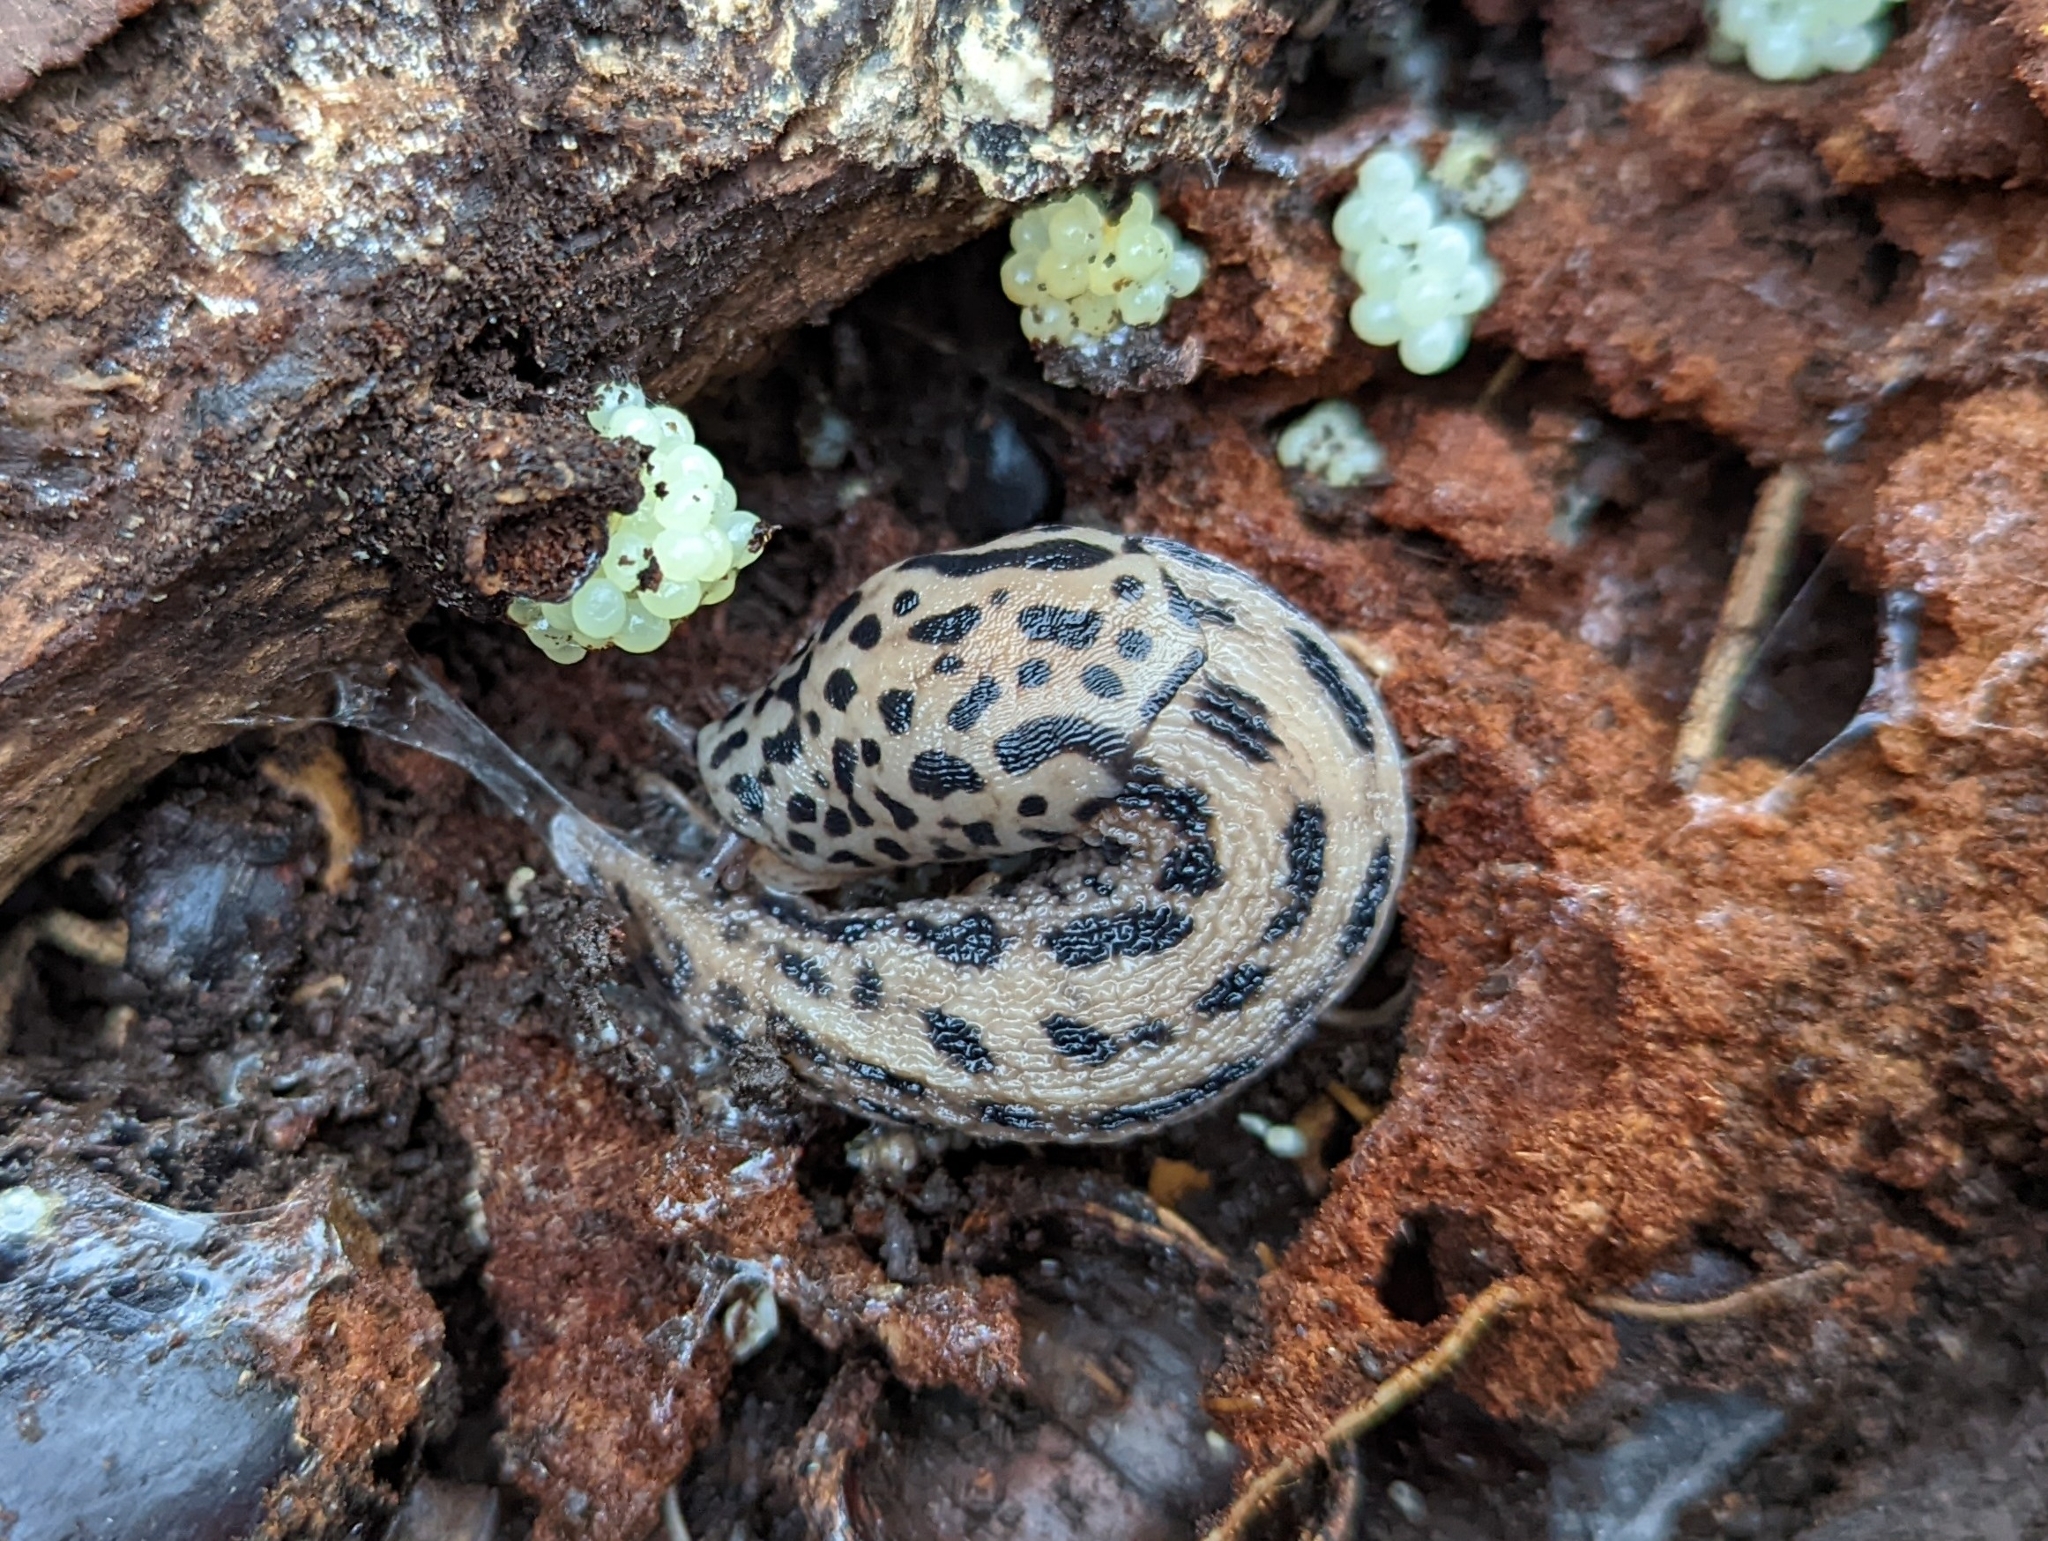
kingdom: Animalia
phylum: Mollusca
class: Gastropoda
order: Stylommatophora
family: Limacidae
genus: Limax
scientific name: Limax maximus
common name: Great grey slug
